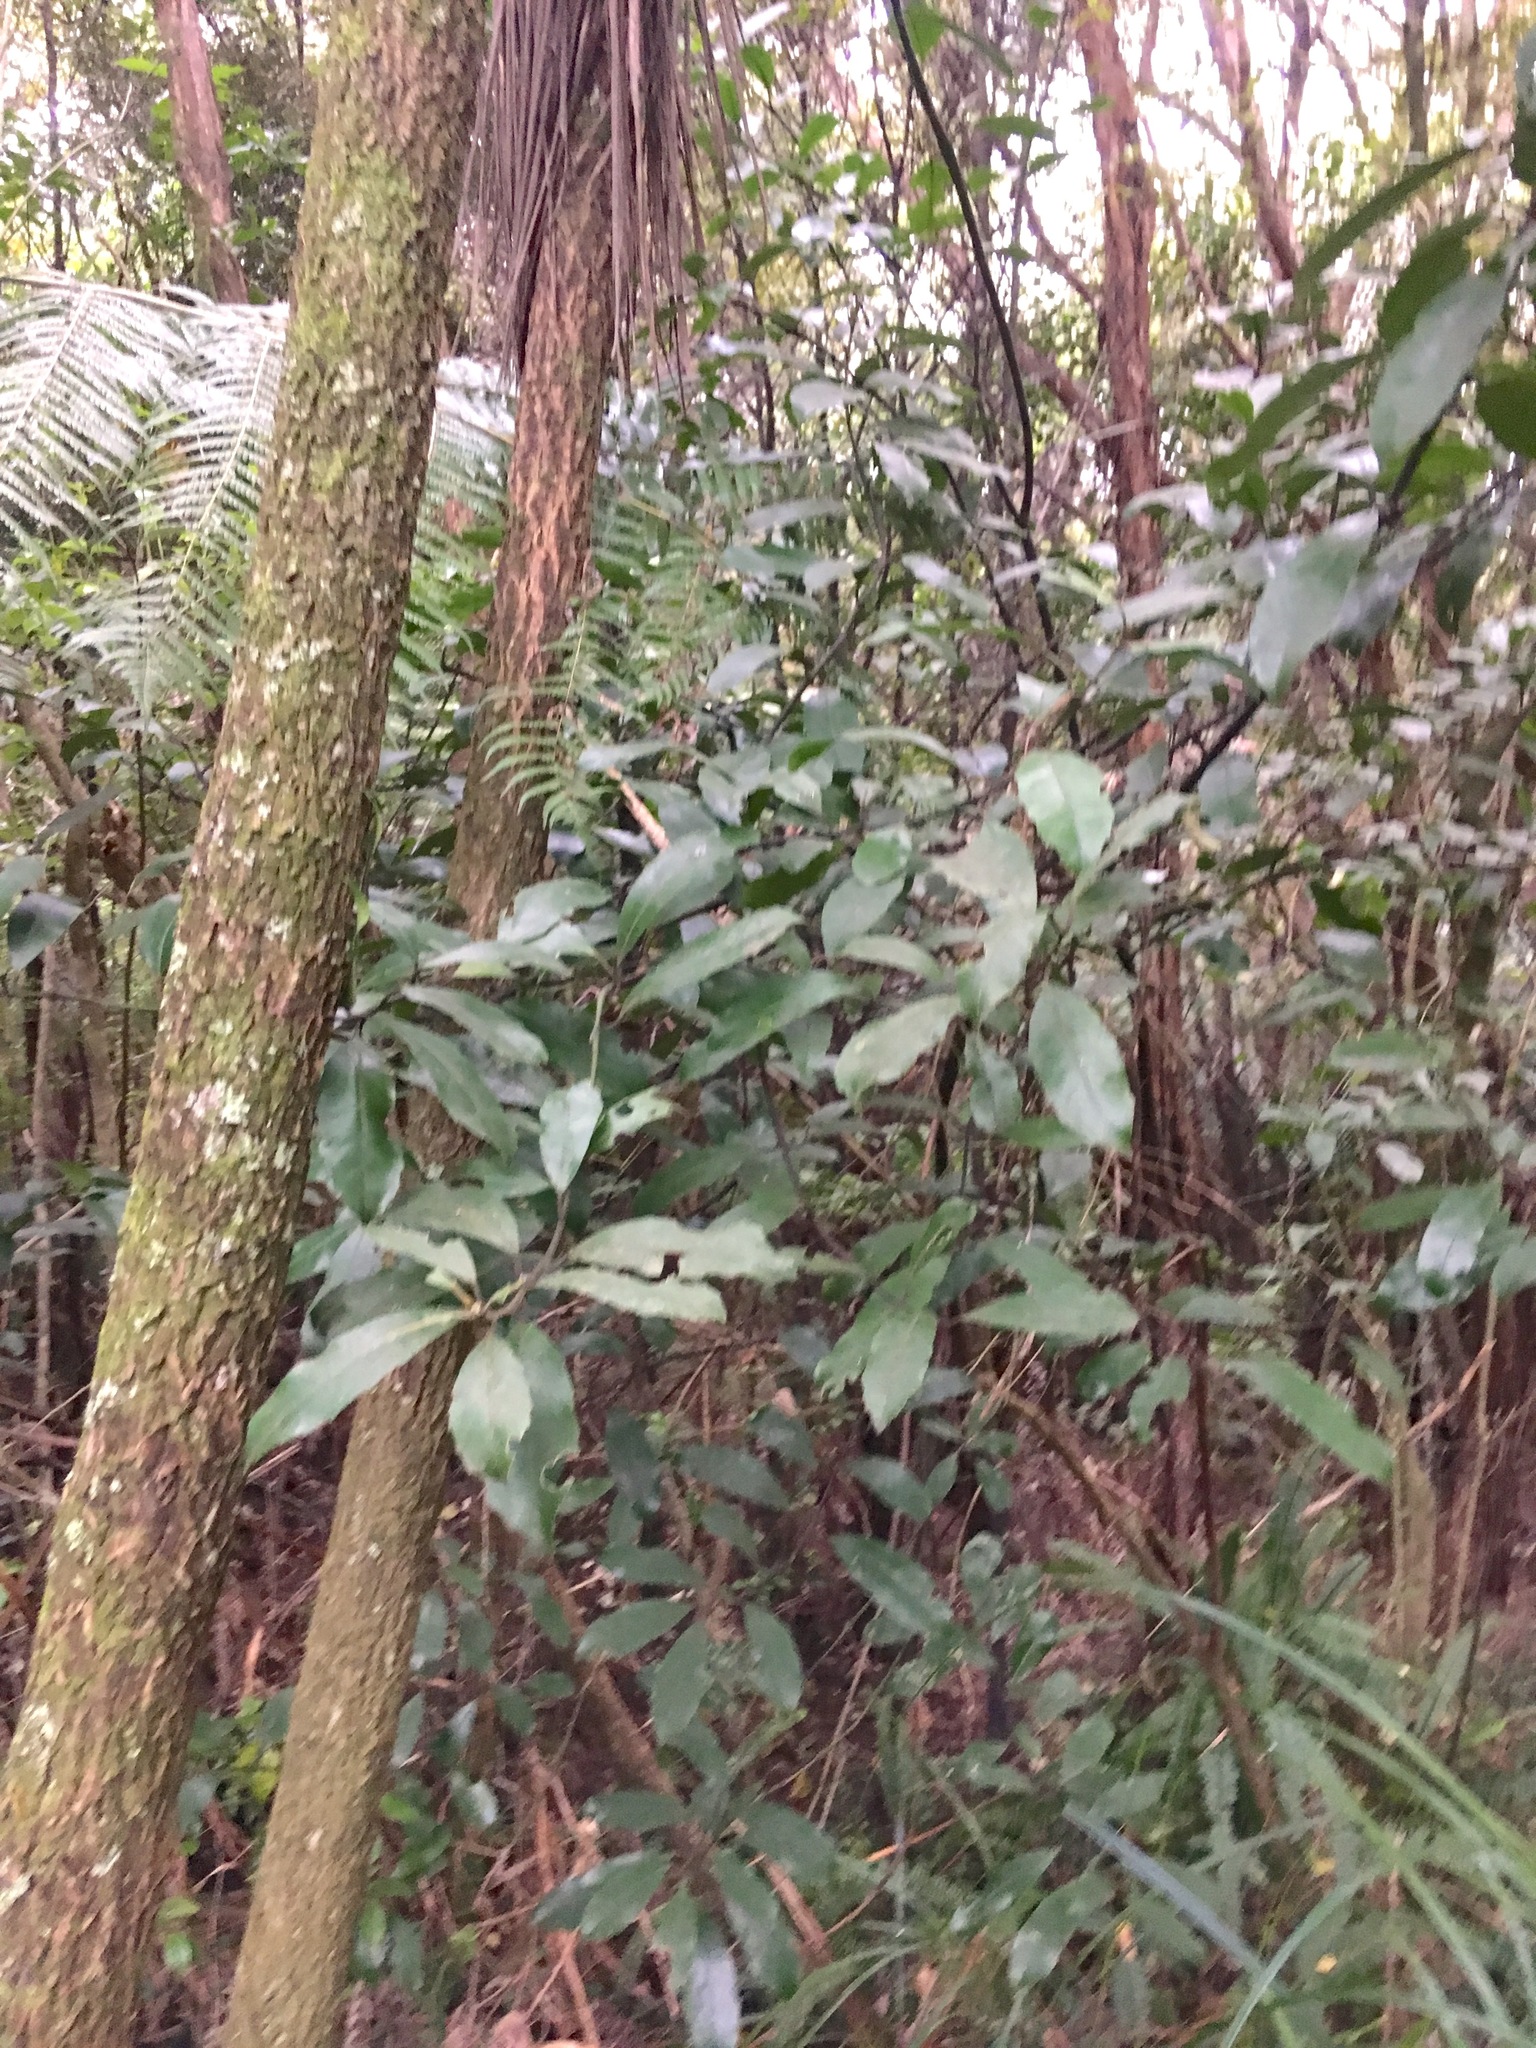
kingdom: Plantae
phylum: Tracheophyta
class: Magnoliopsida
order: Laurales
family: Monimiaceae
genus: Hedycarya
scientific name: Hedycarya arborea
